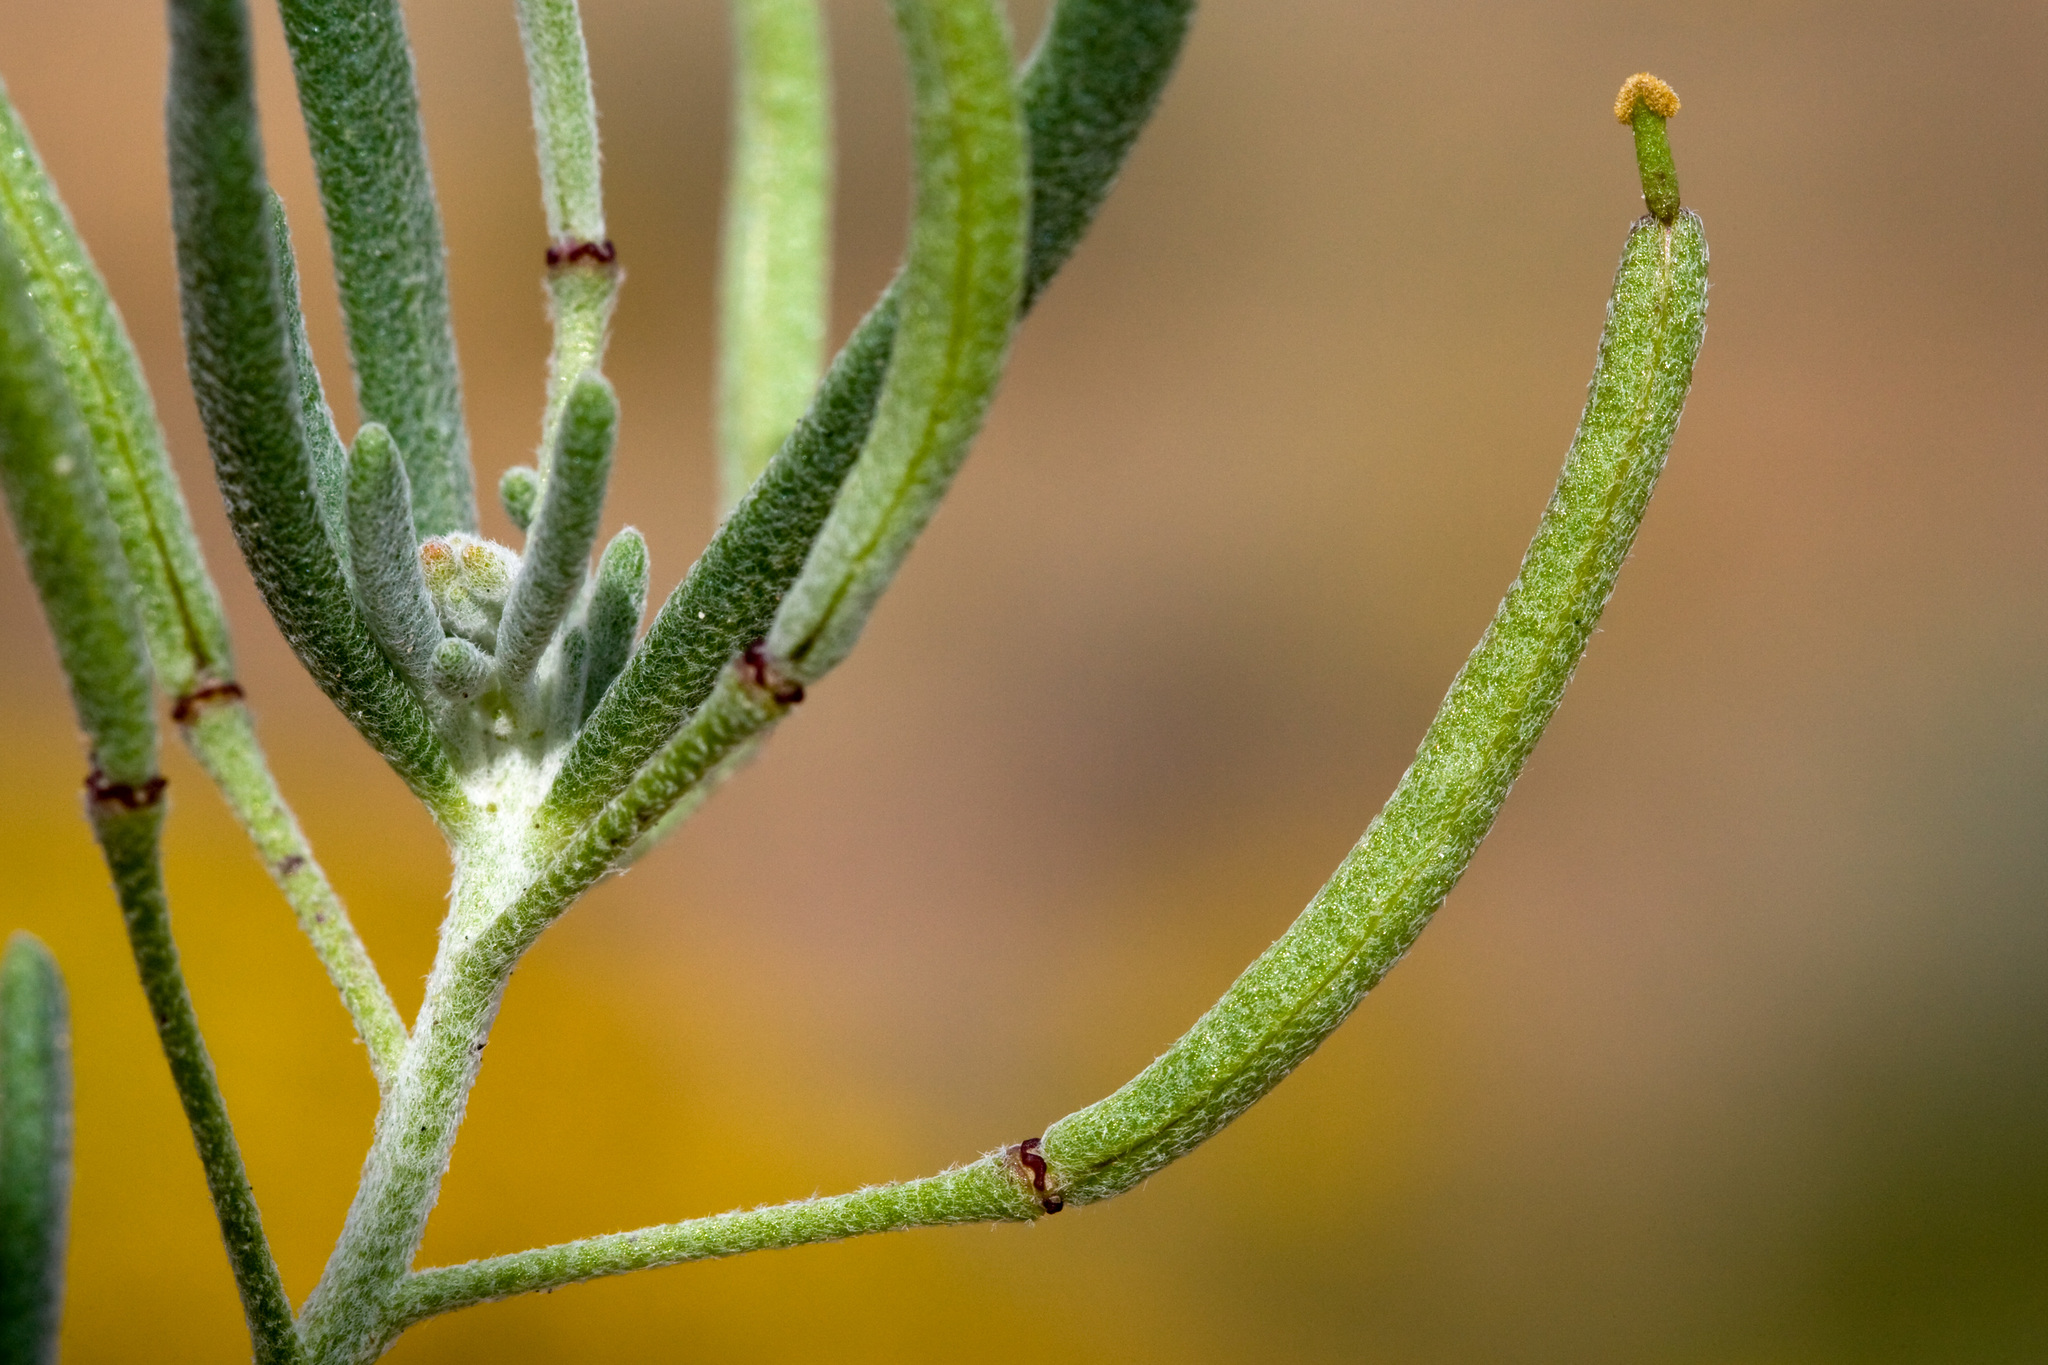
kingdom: Plantae
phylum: Tracheophyta
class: Magnoliopsida
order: Brassicales
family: Brassicaceae
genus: Nerisyrenia
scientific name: Nerisyrenia linearifolia
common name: White sands fan mustard
